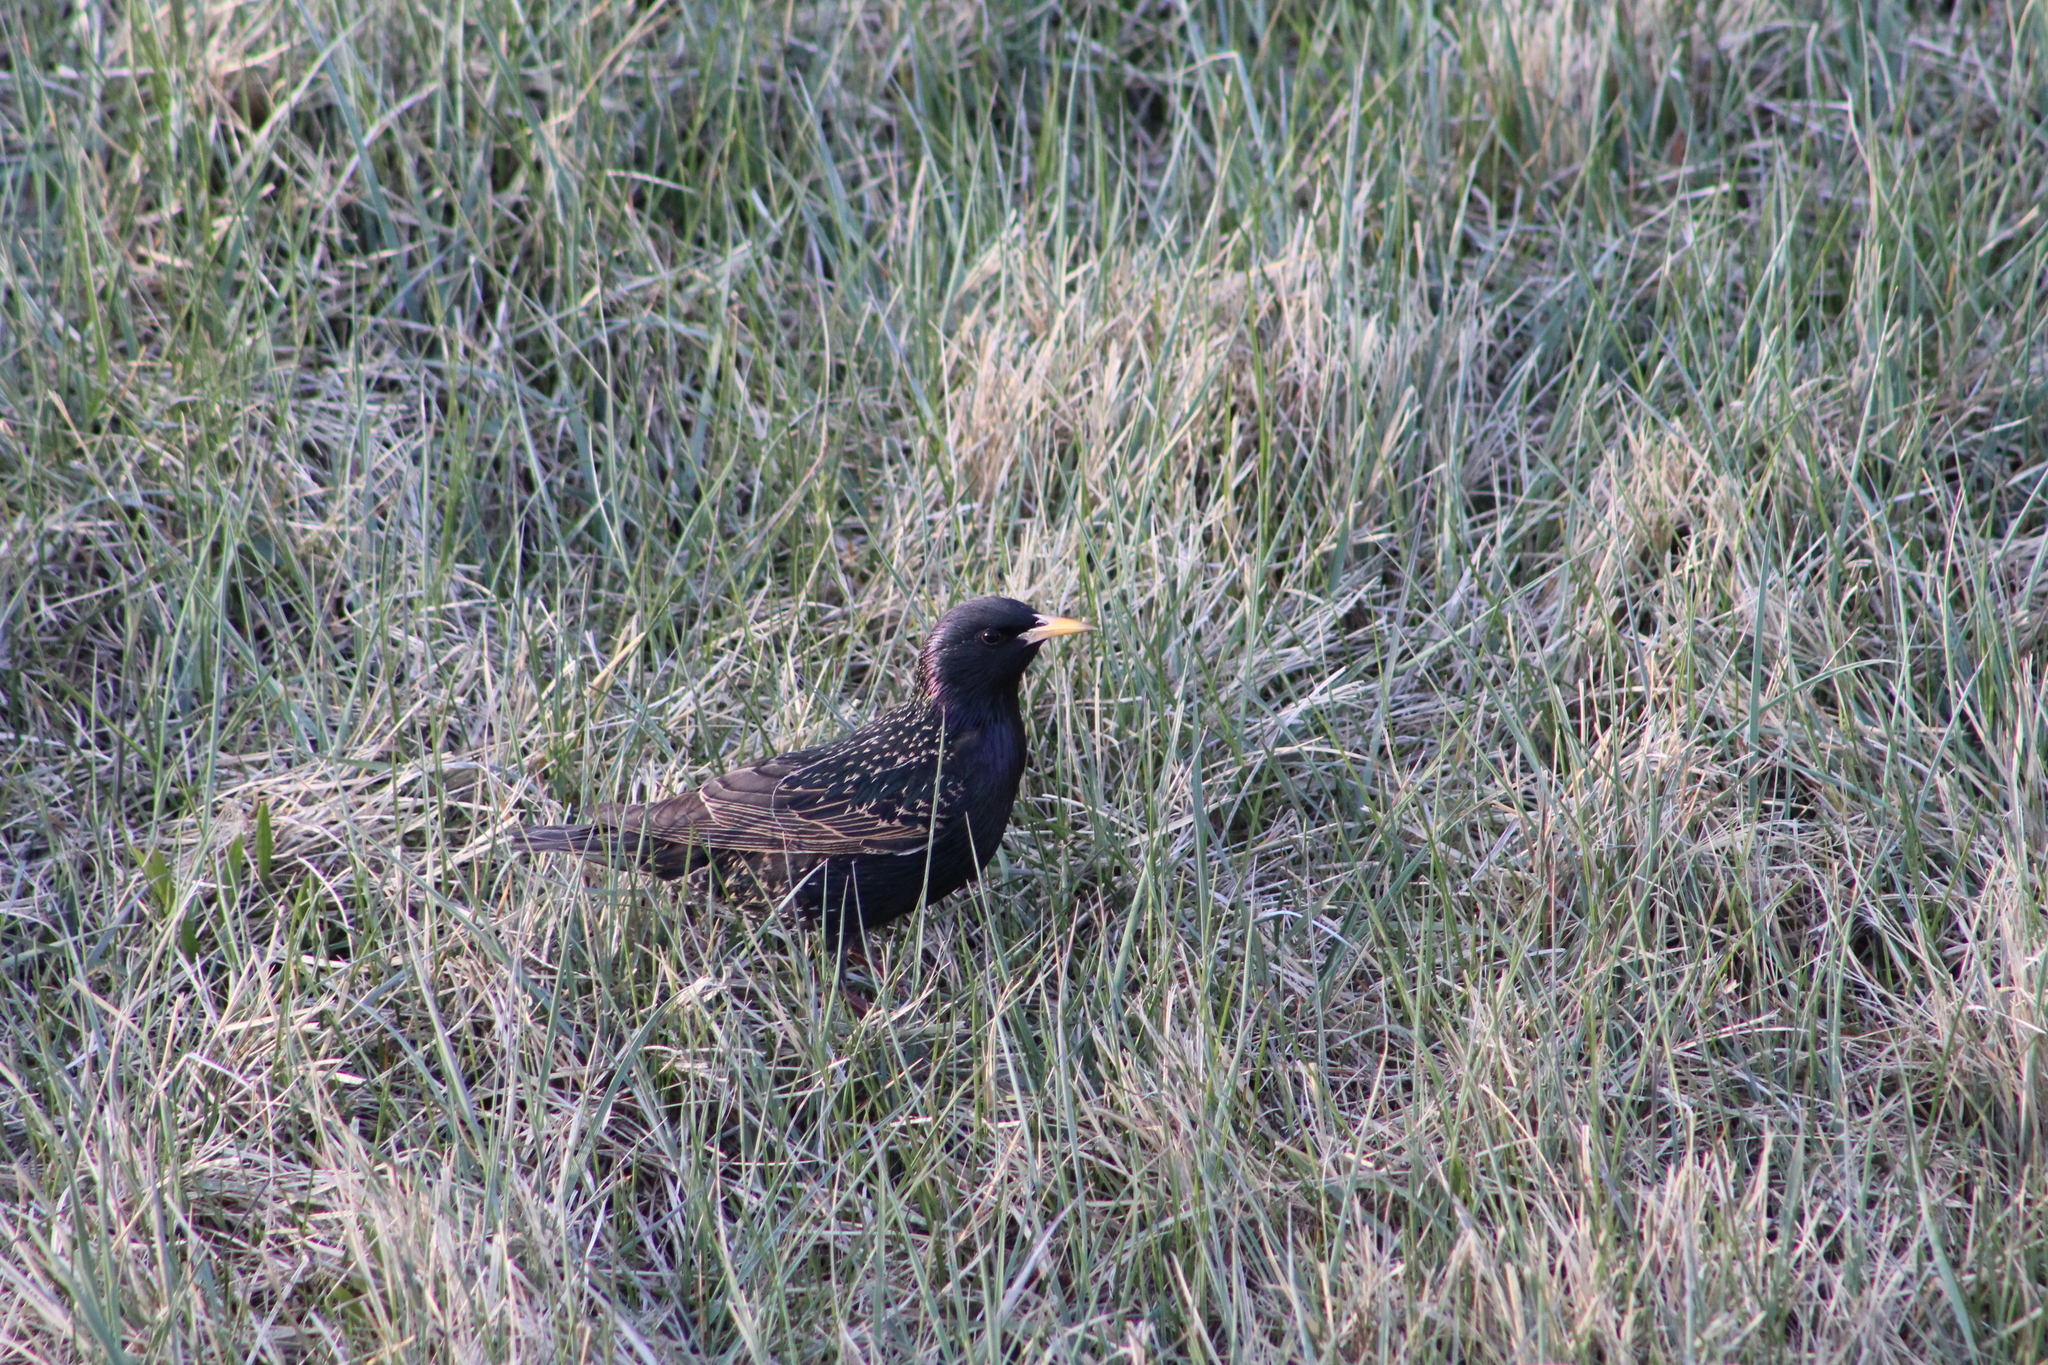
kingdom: Animalia
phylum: Chordata
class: Aves
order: Passeriformes
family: Sturnidae
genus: Sturnus
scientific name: Sturnus vulgaris
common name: Common starling
